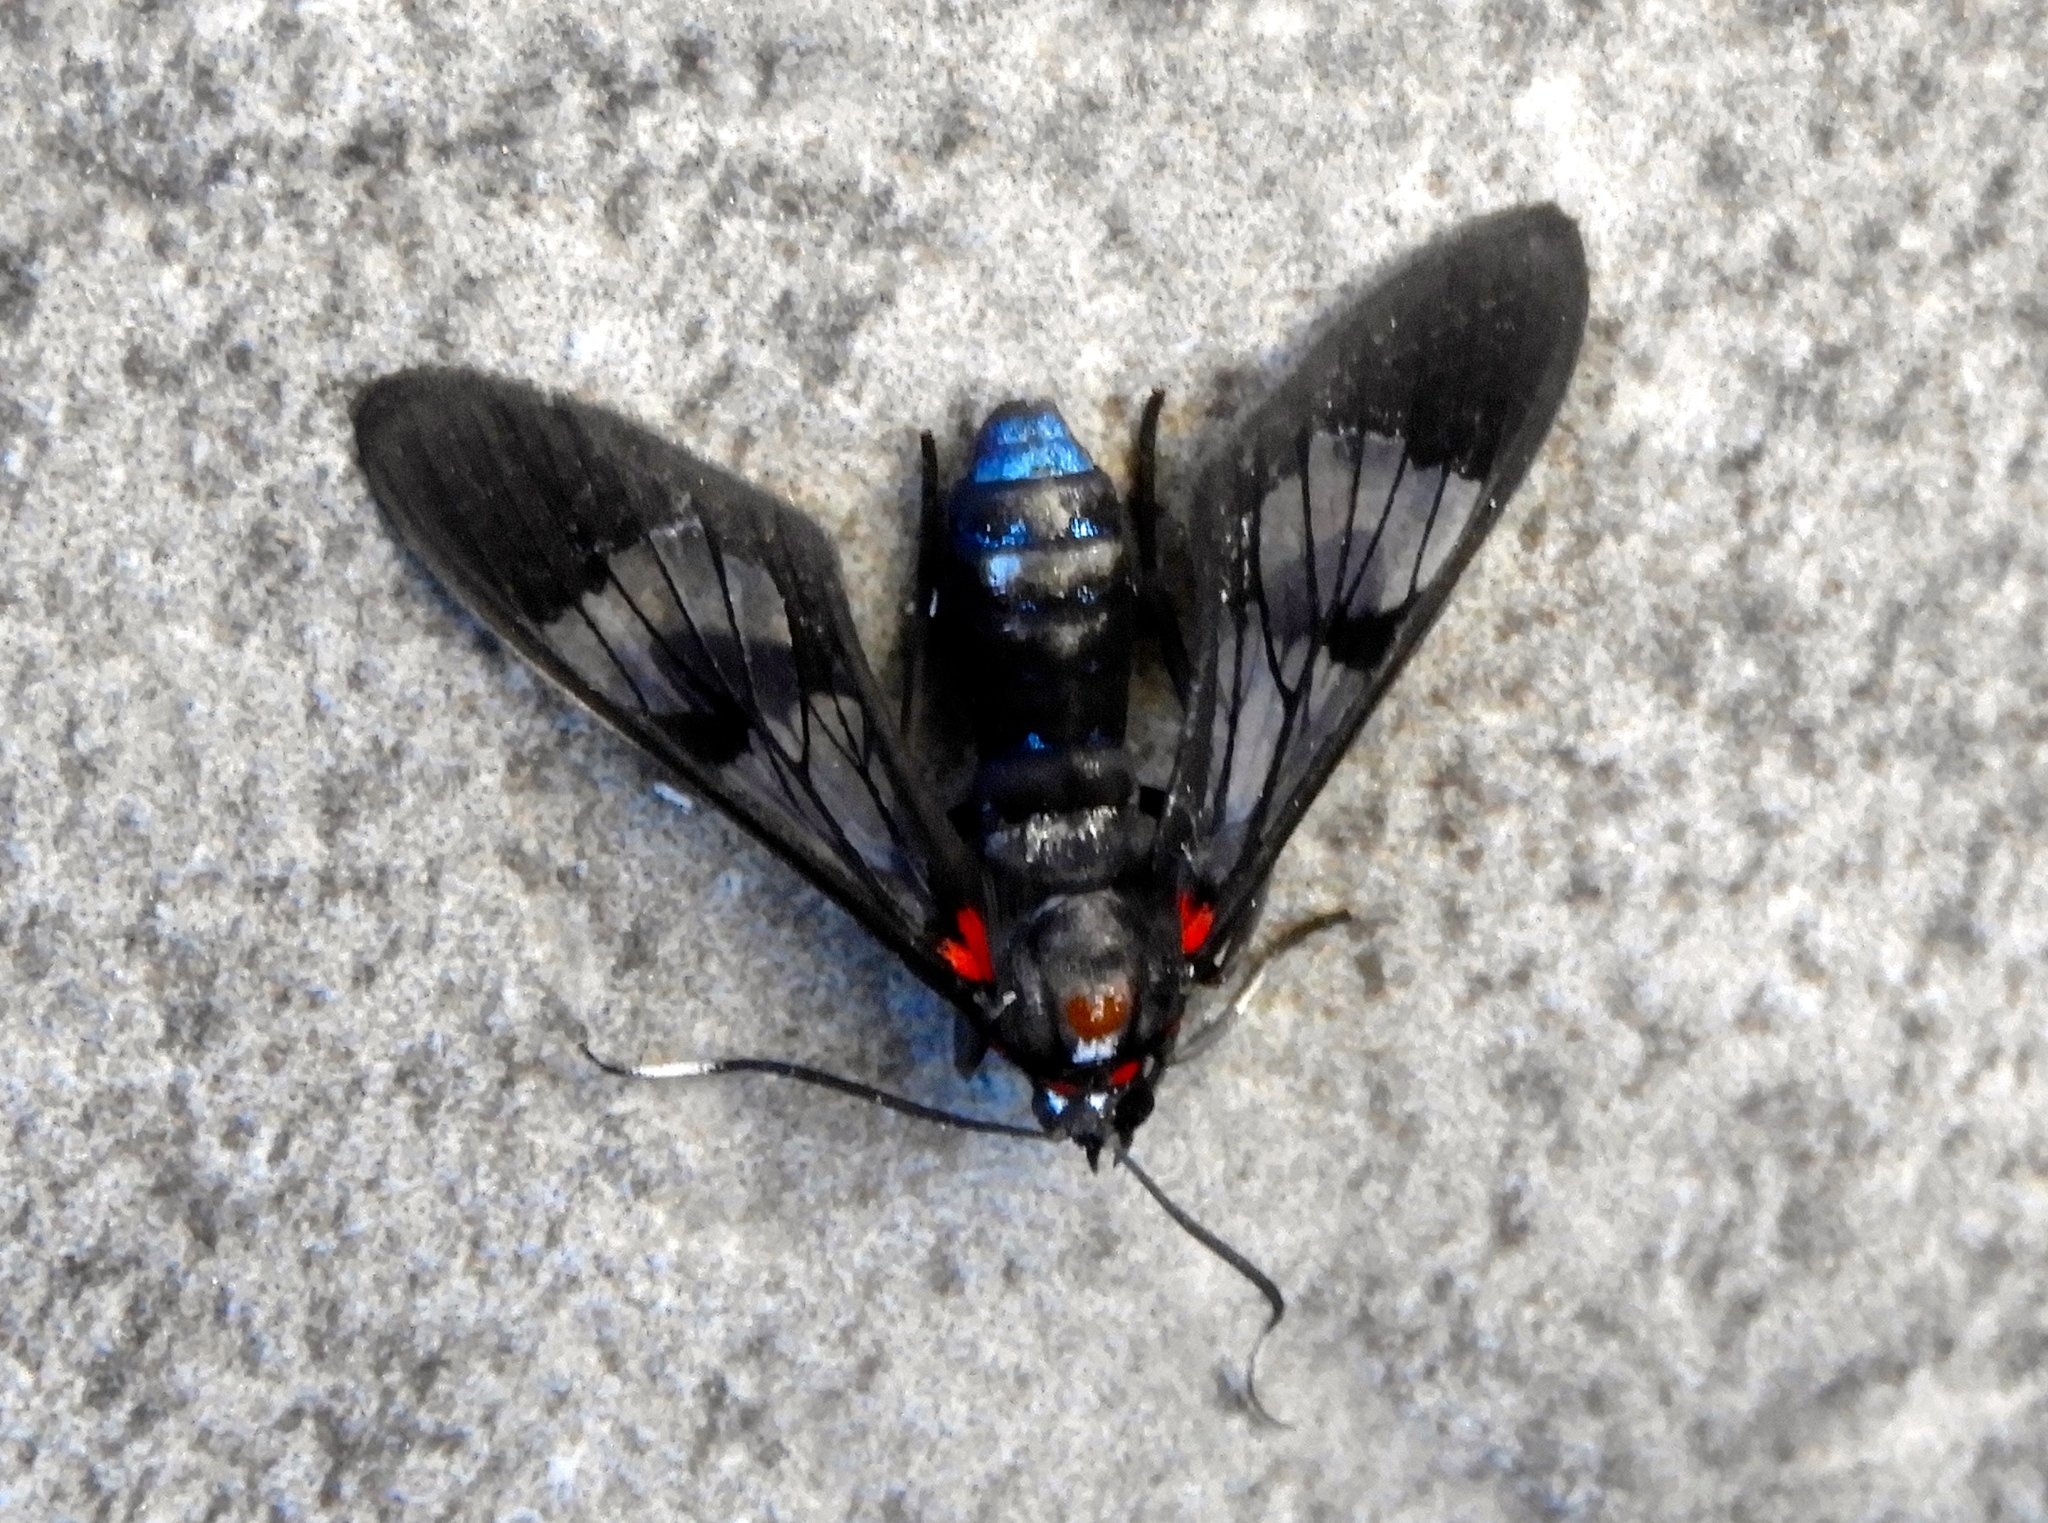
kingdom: Animalia
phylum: Arthropoda
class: Insecta
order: Lepidoptera
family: Erebidae
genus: Pheia
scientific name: Pheia haematosticta
